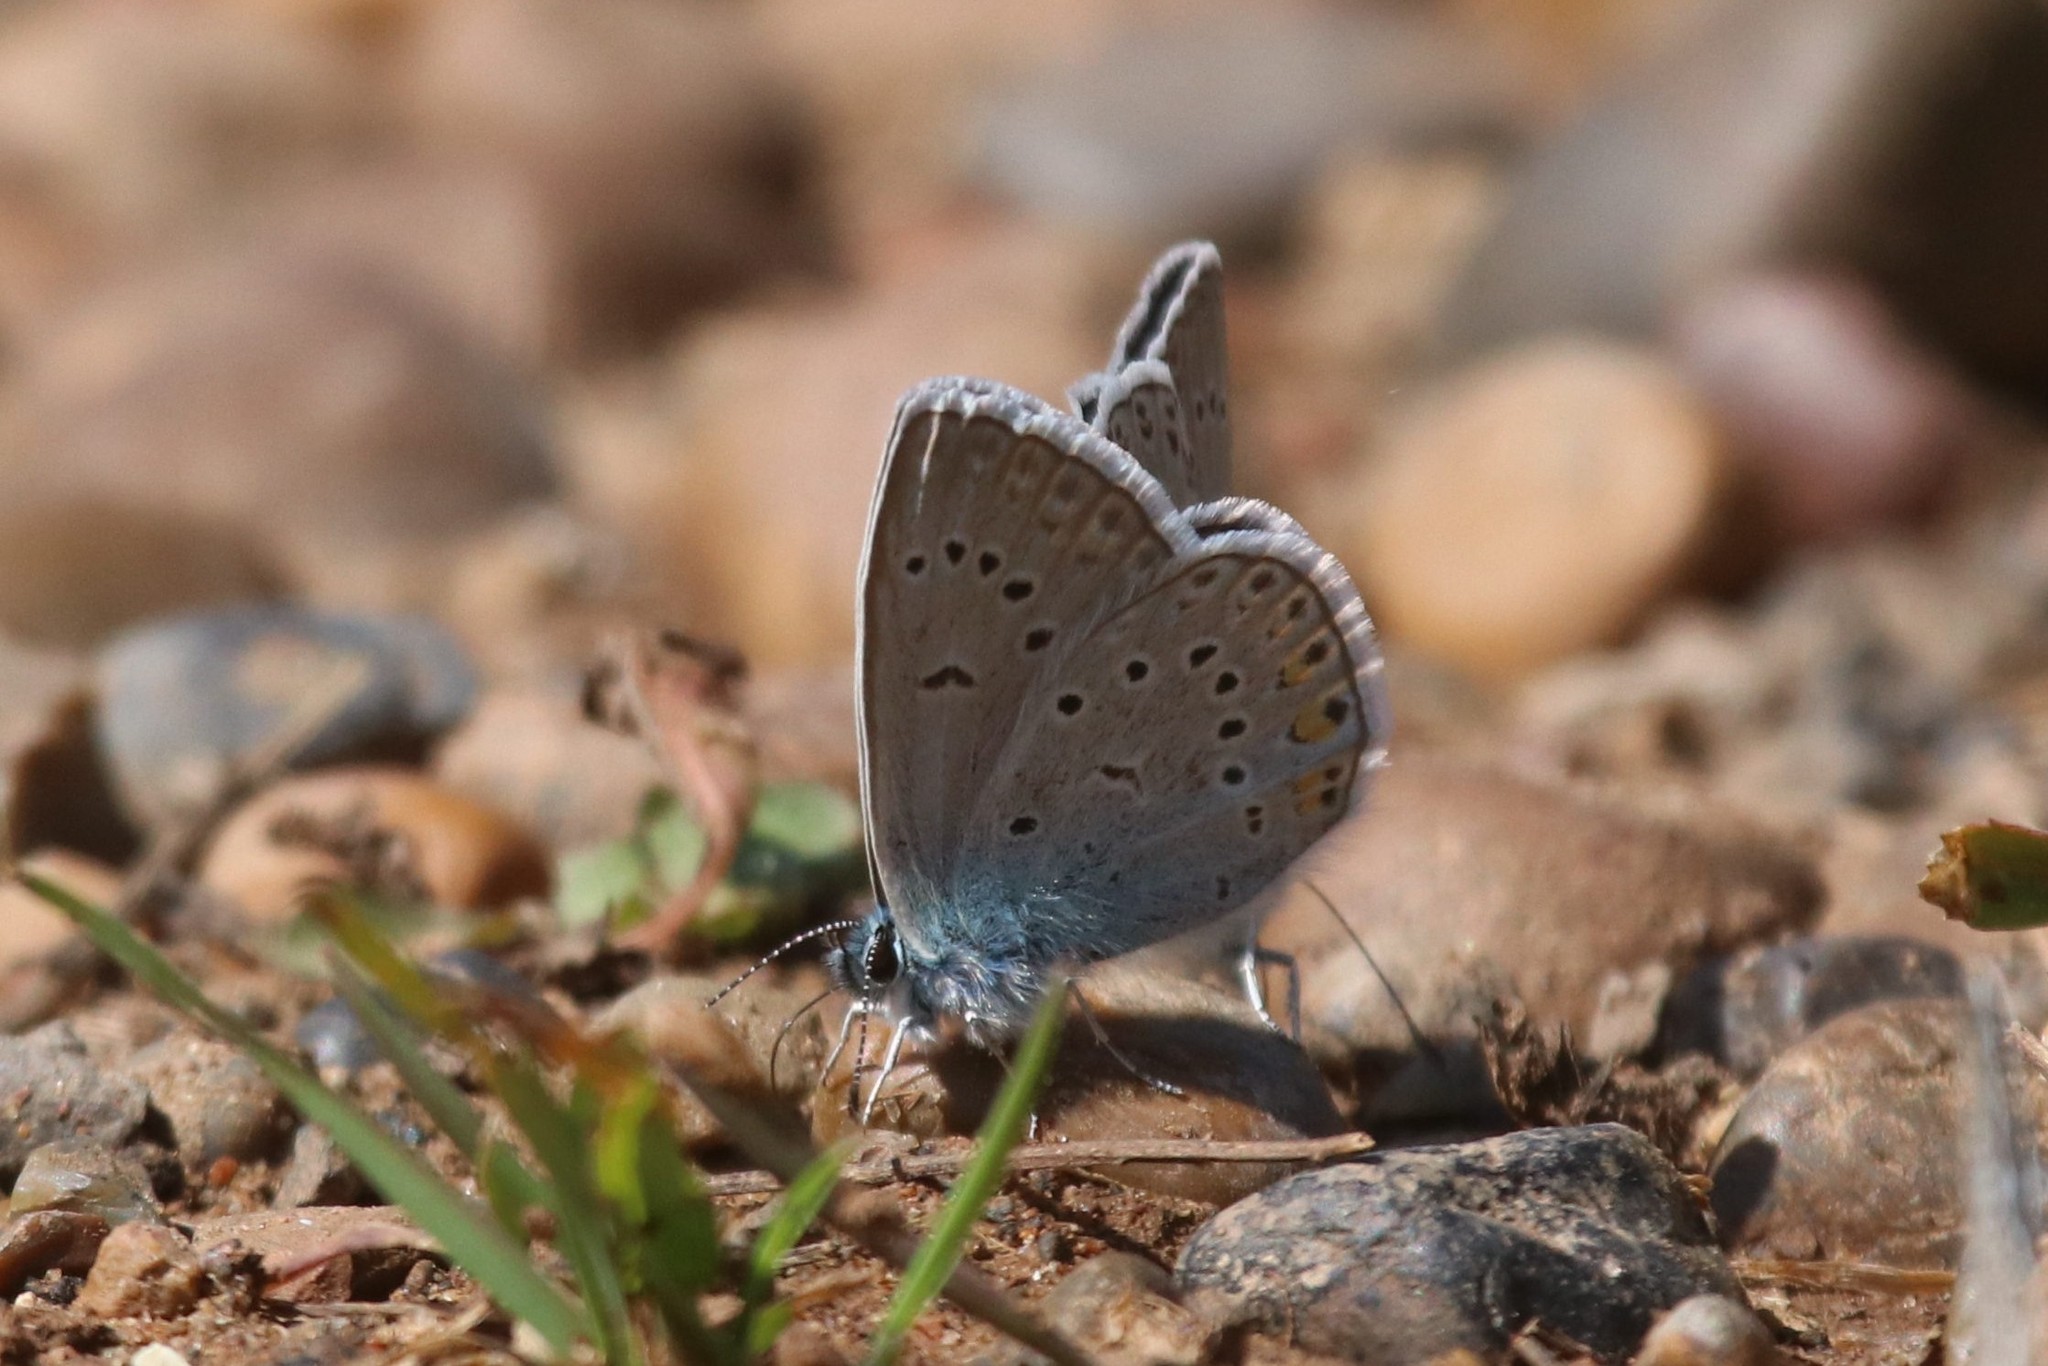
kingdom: Animalia
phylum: Arthropoda
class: Insecta
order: Lepidoptera
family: Lycaenidae
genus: Plebejus
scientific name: Plebejus amanda
